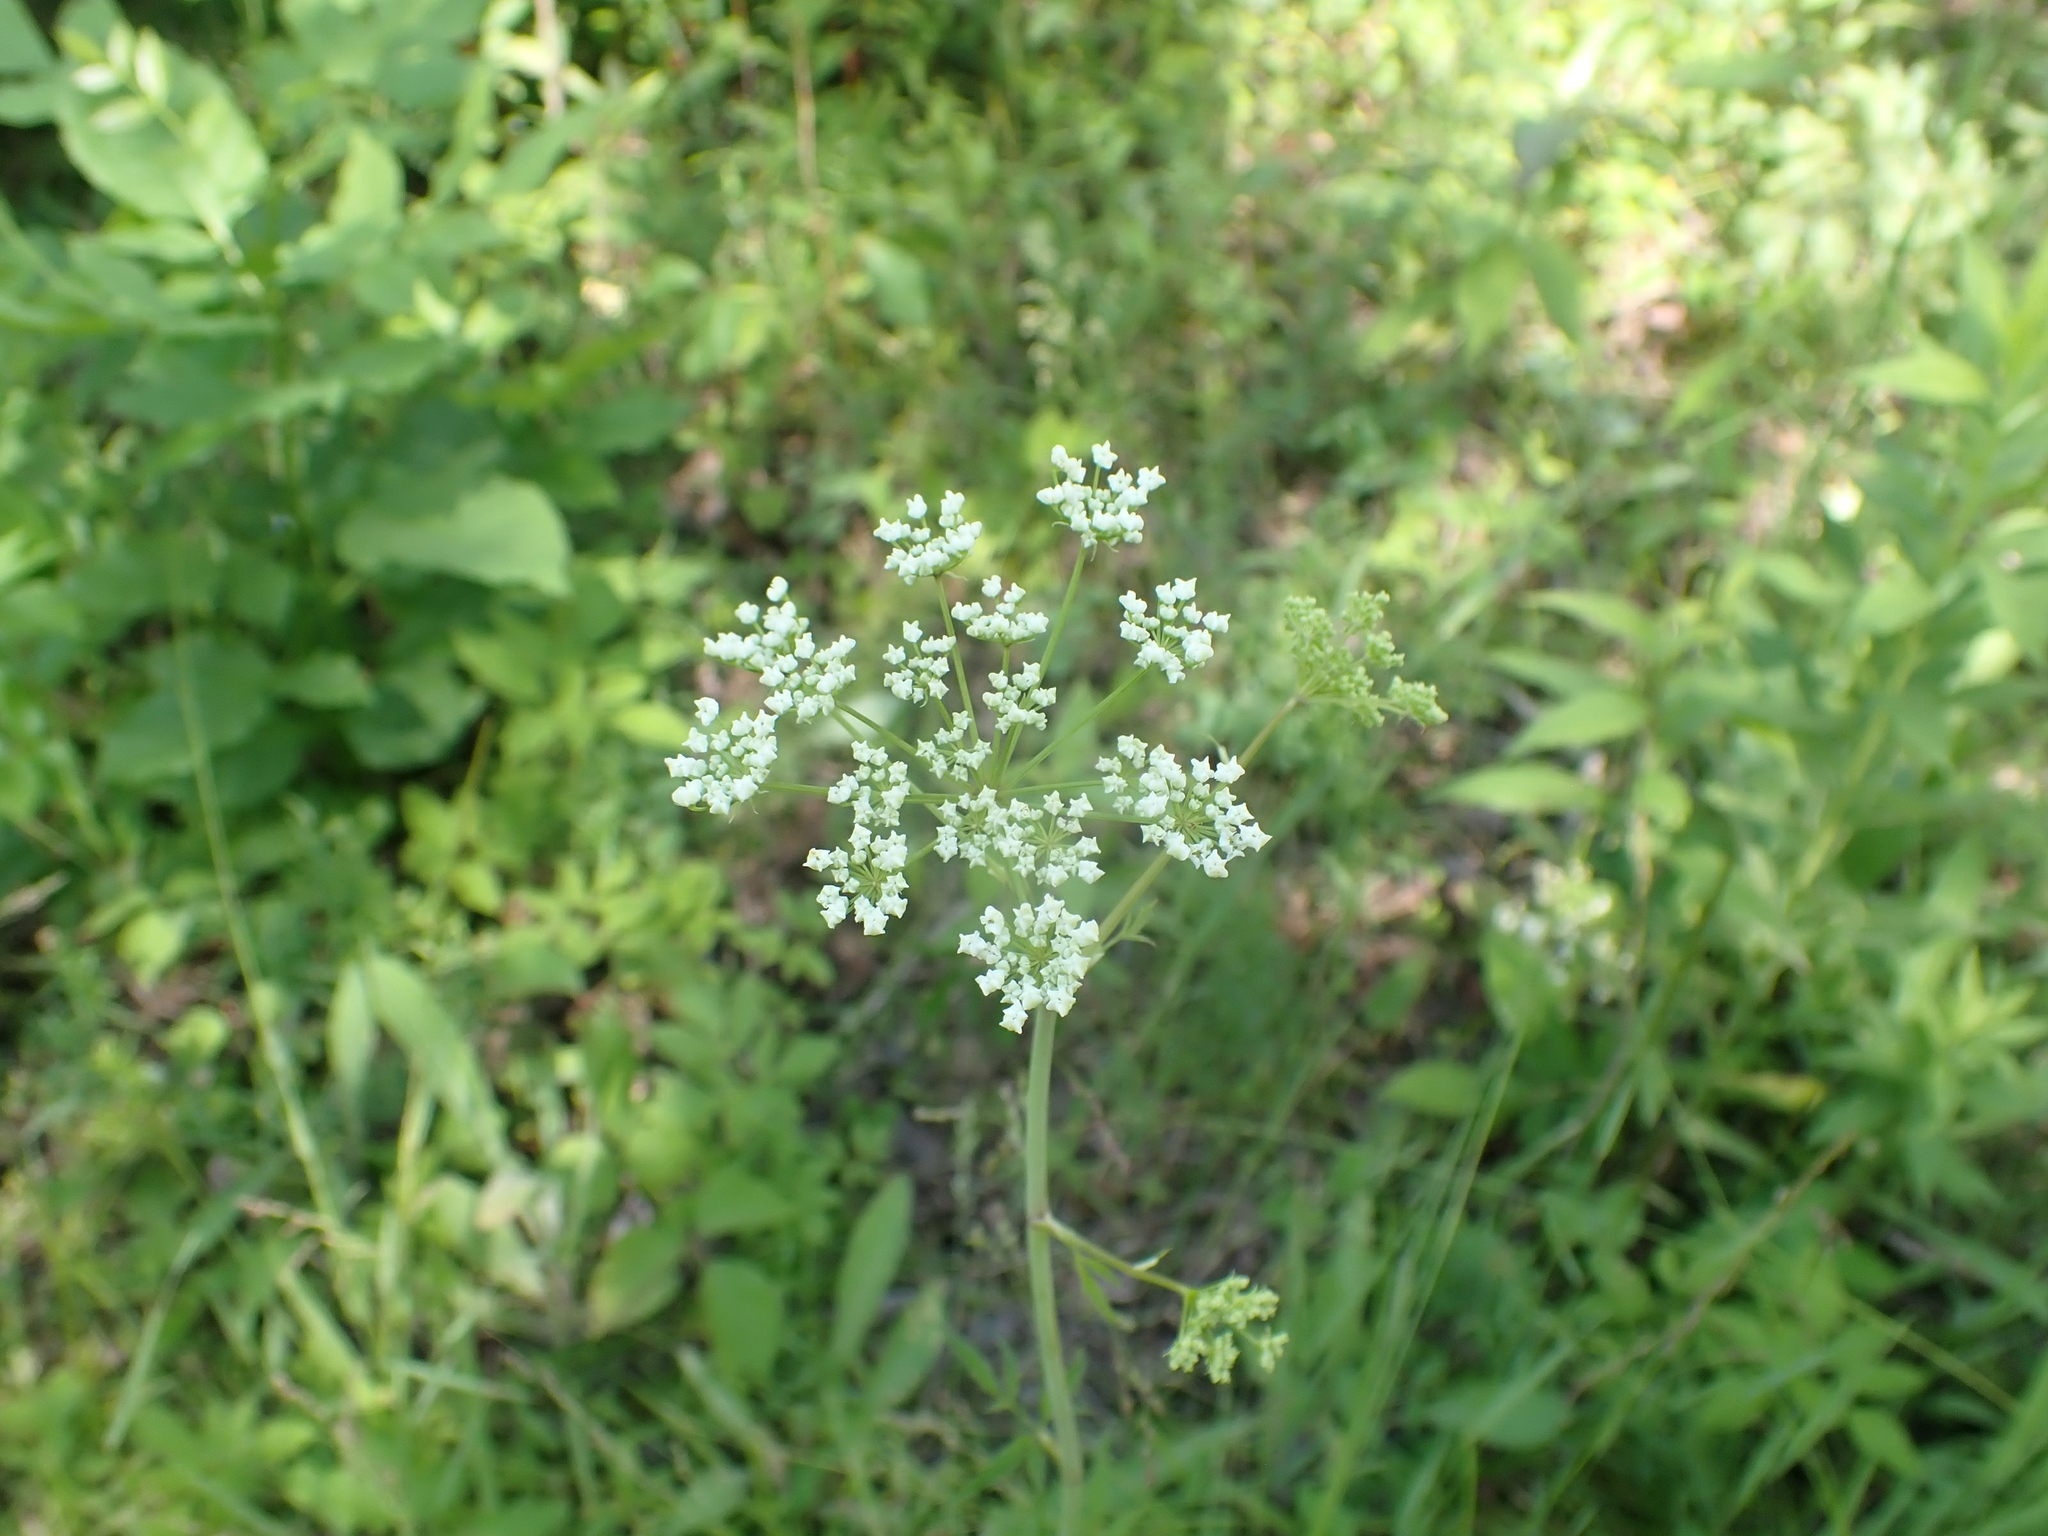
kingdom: Plantae
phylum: Tracheophyta
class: Magnoliopsida
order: Apiales
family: Apiaceae
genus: Cicuta
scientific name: Cicuta maculata
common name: Spotted cowbane
